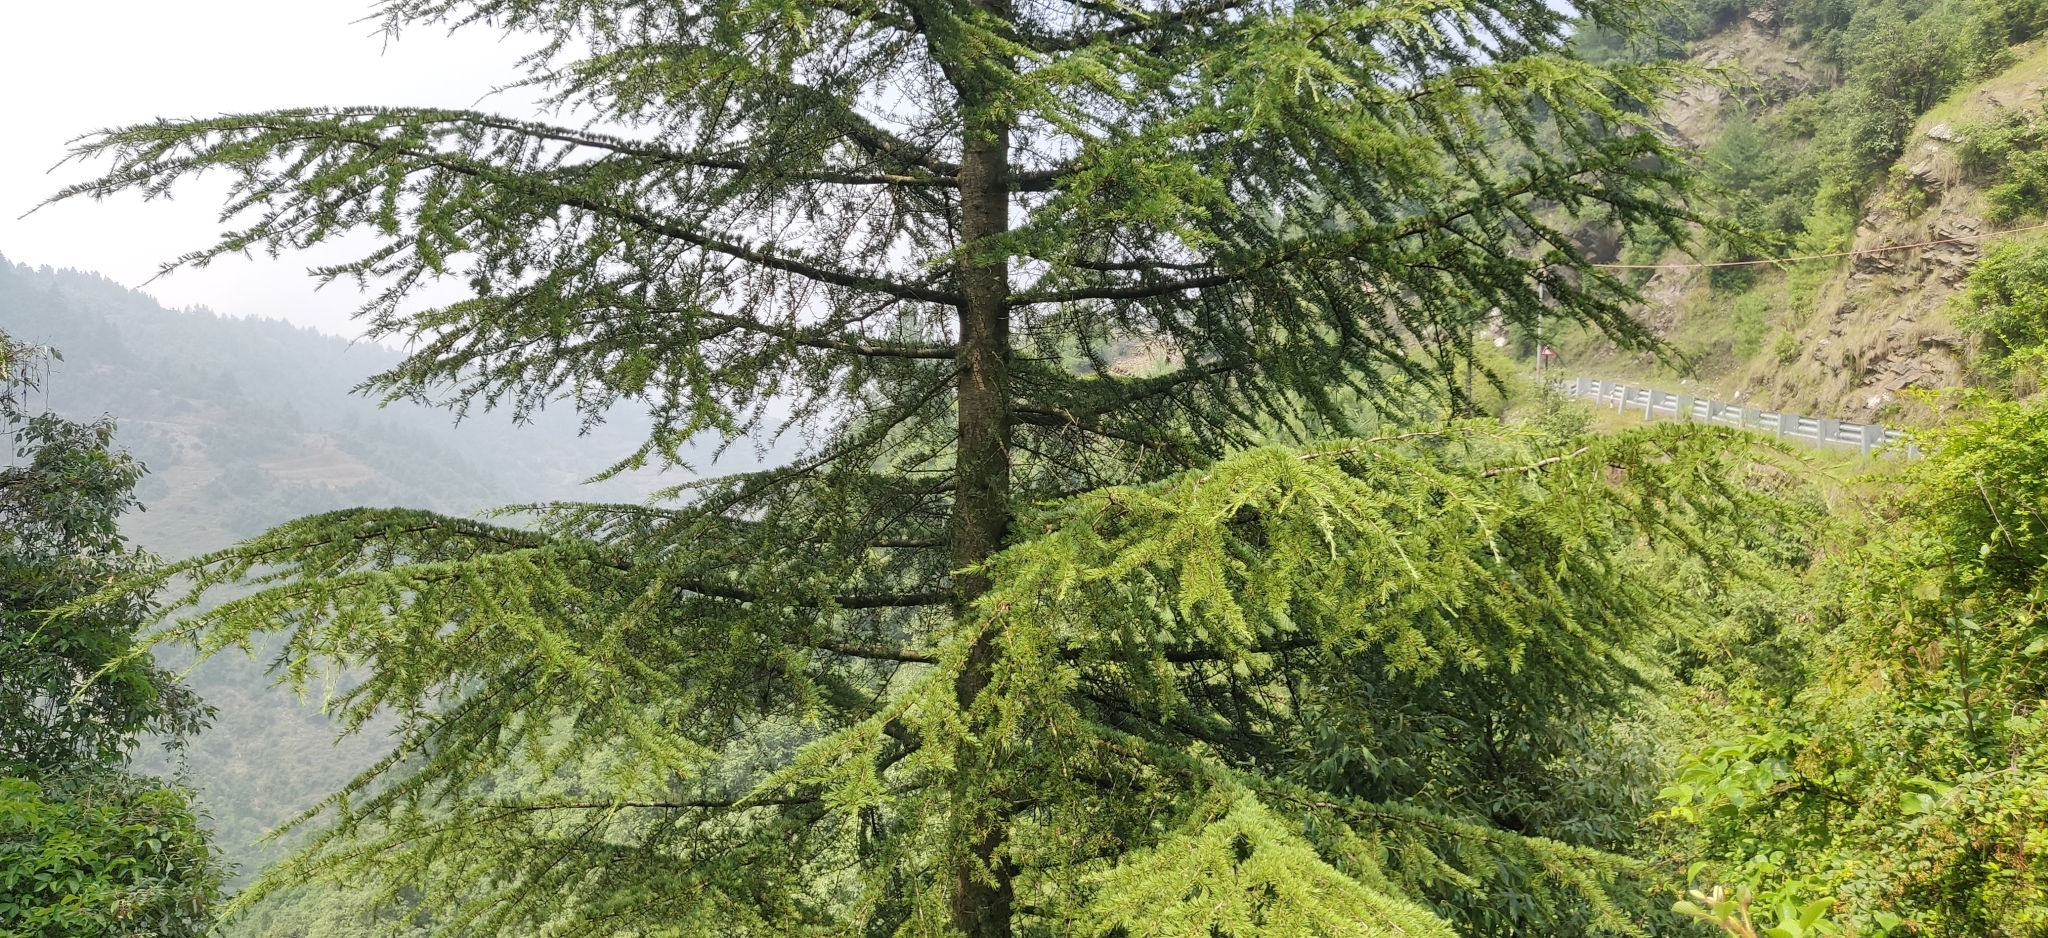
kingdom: Plantae
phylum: Tracheophyta
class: Pinopsida
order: Pinales
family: Pinaceae
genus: Cedrus
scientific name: Cedrus deodara
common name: Deodar
